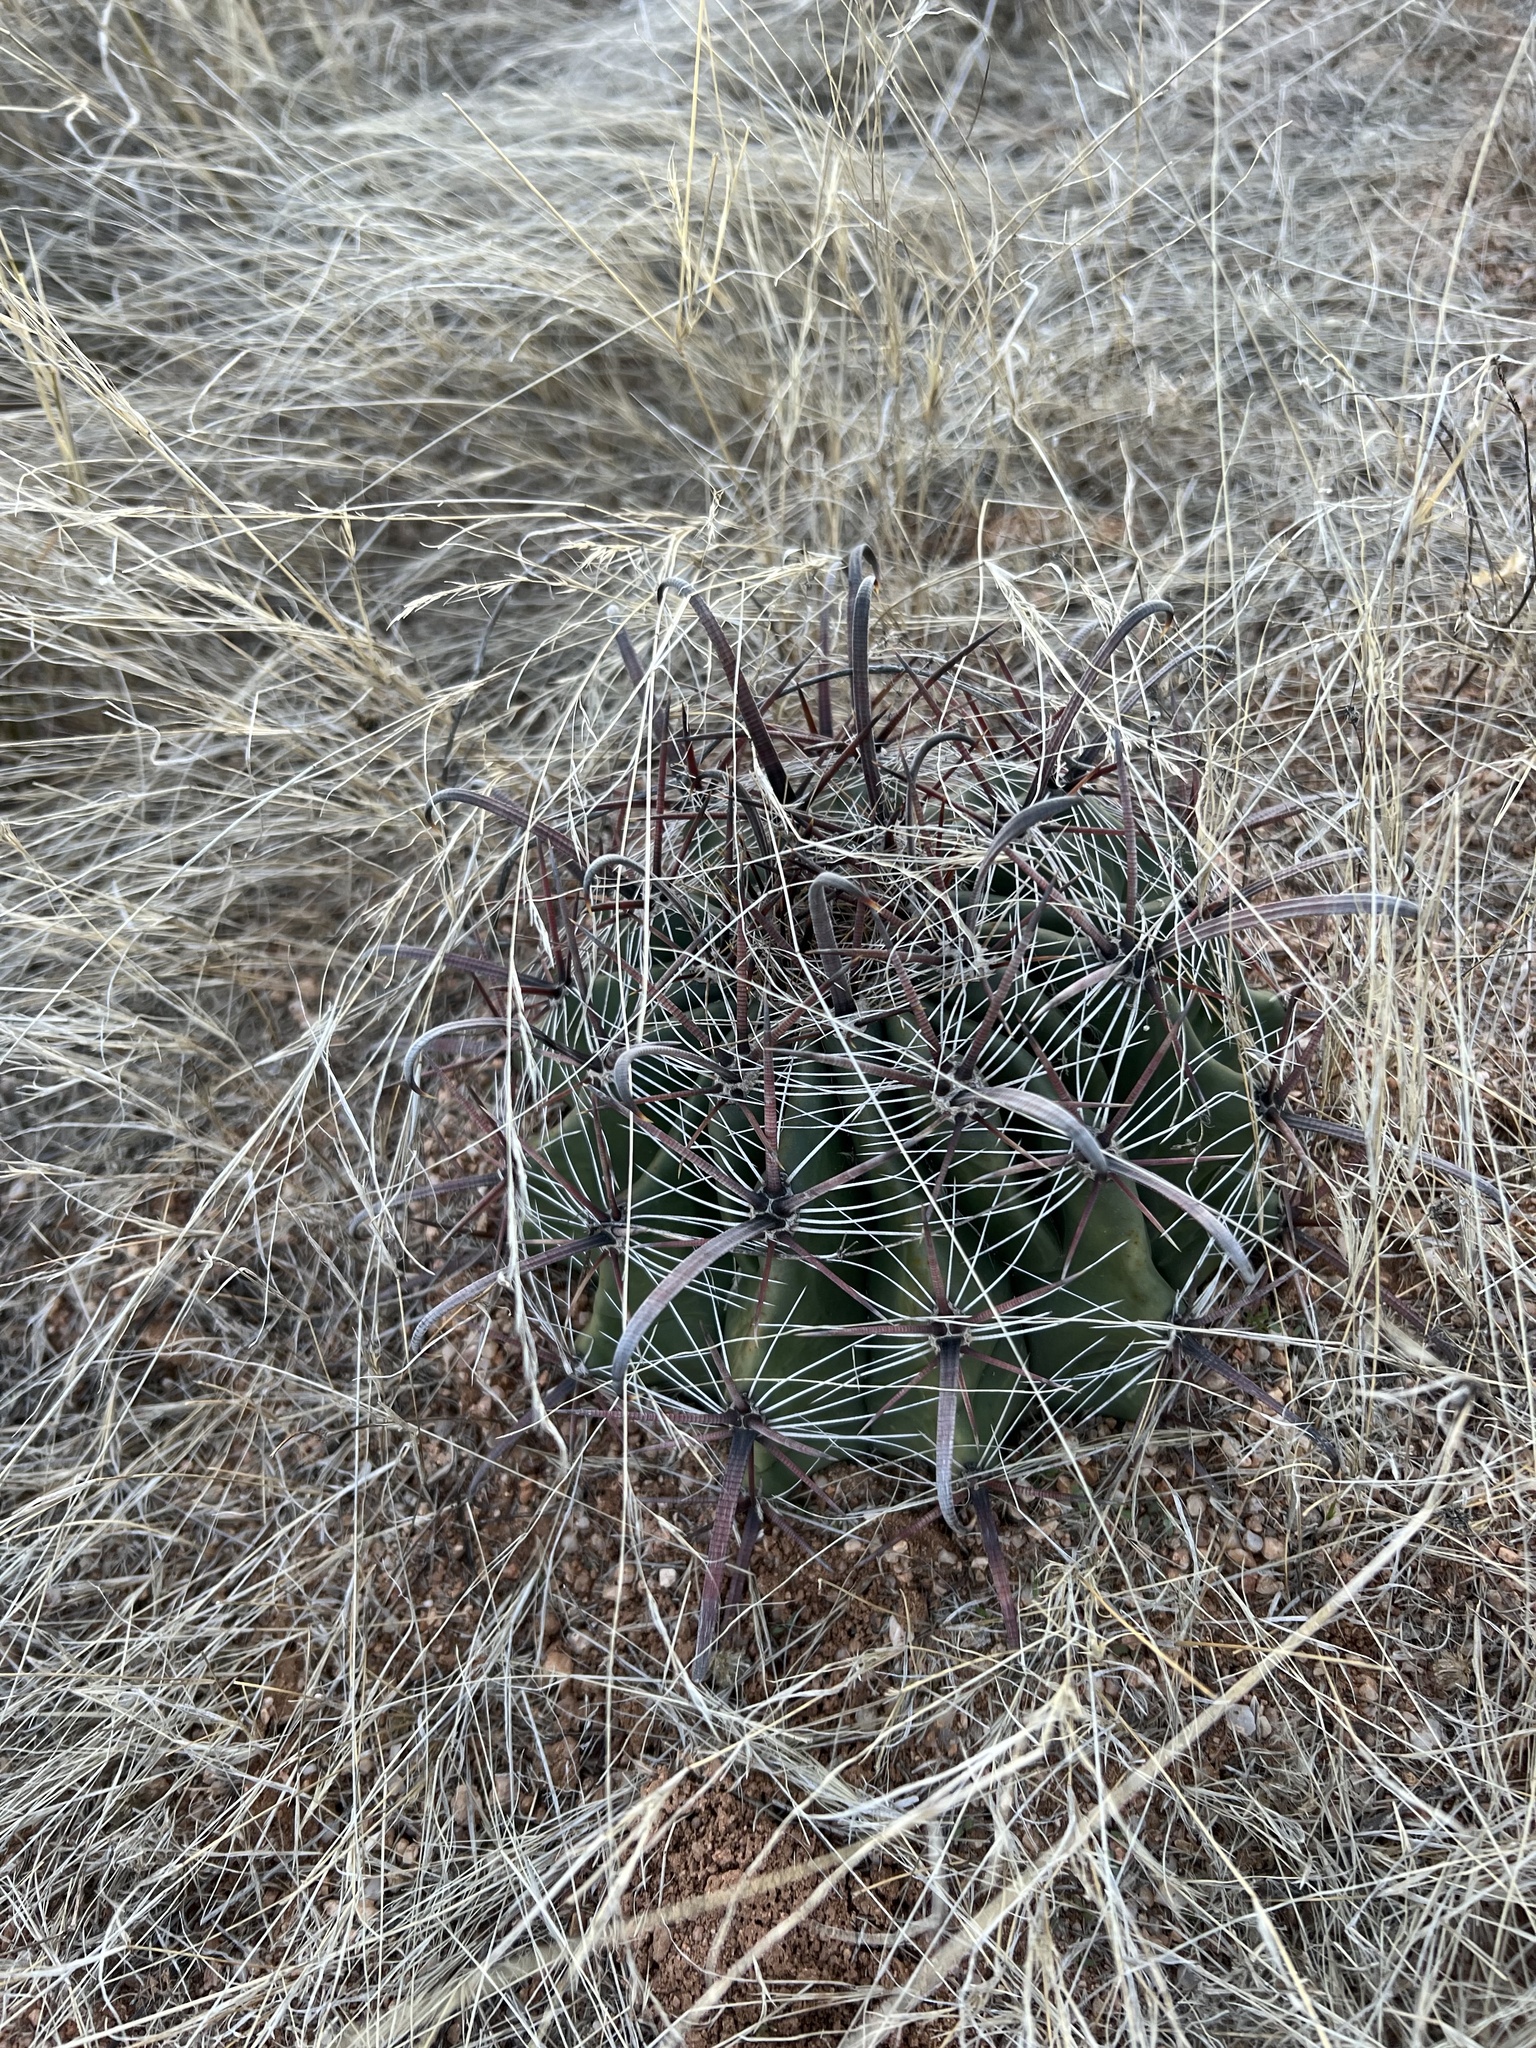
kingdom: Plantae
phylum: Tracheophyta
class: Magnoliopsida
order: Caryophyllales
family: Cactaceae
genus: Ferocactus
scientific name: Ferocactus wislizeni
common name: Candy barrel cactus
